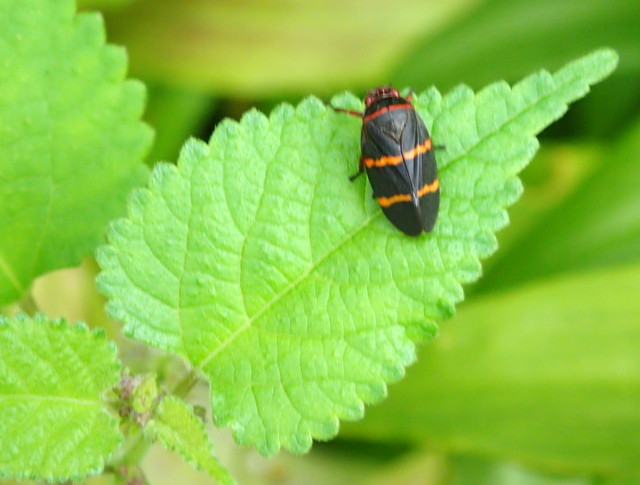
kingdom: Animalia
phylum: Arthropoda
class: Insecta
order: Hemiptera
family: Cercopidae
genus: Prosapia
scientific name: Prosapia bicincta
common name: Twolined spittlebug
